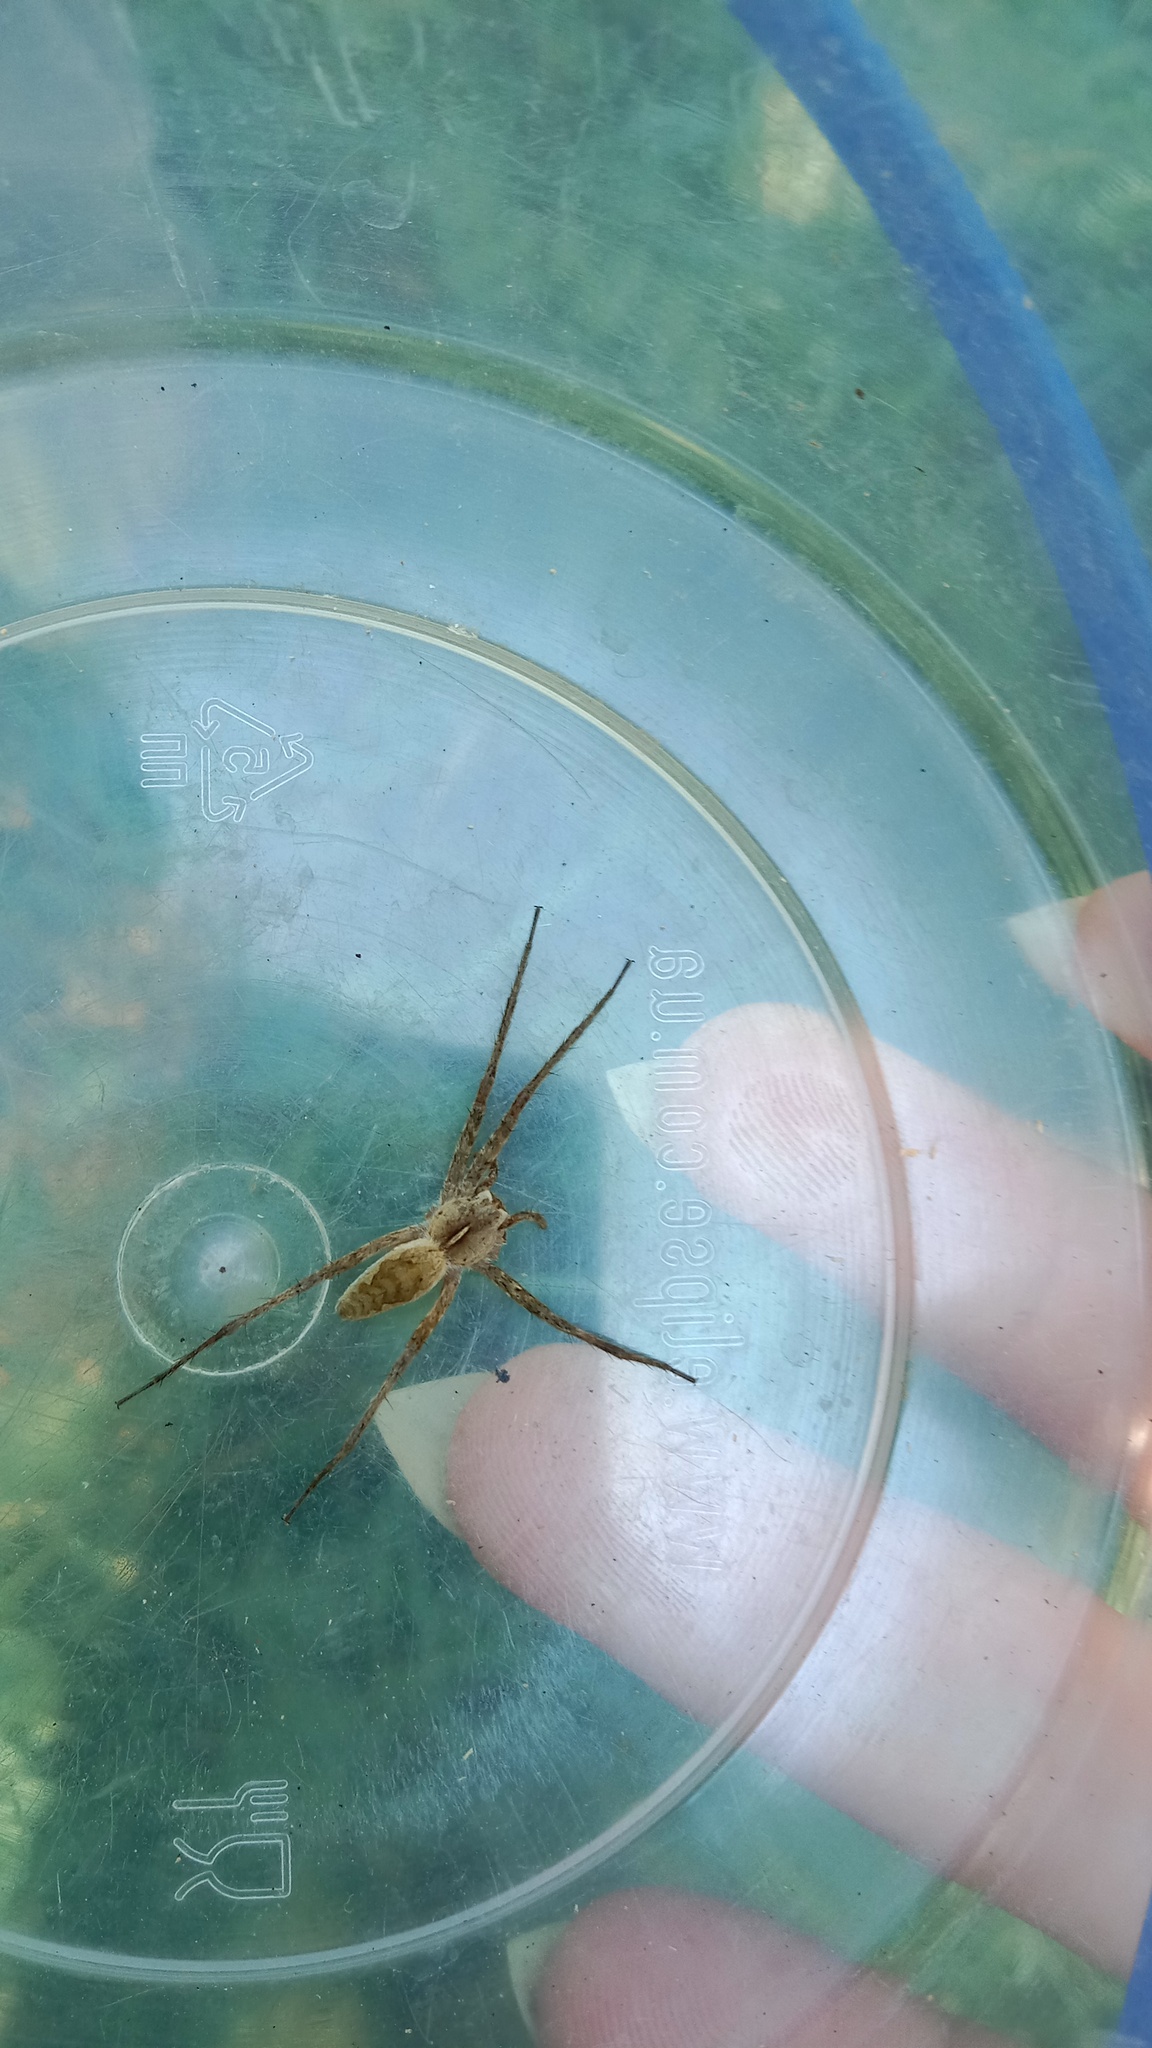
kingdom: Animalia
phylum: Arthropoda
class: Arachnida
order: Araneae
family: Pisauridae
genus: Pisaura
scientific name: Pisaura
